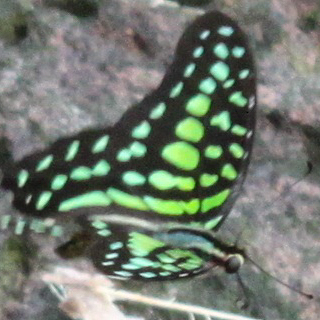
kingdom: Animalia
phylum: Arthropoda
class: Insecta
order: Lepidoptera
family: Papilionidae
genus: Graphium
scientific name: Graphium agamemnon
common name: Tailed jay
